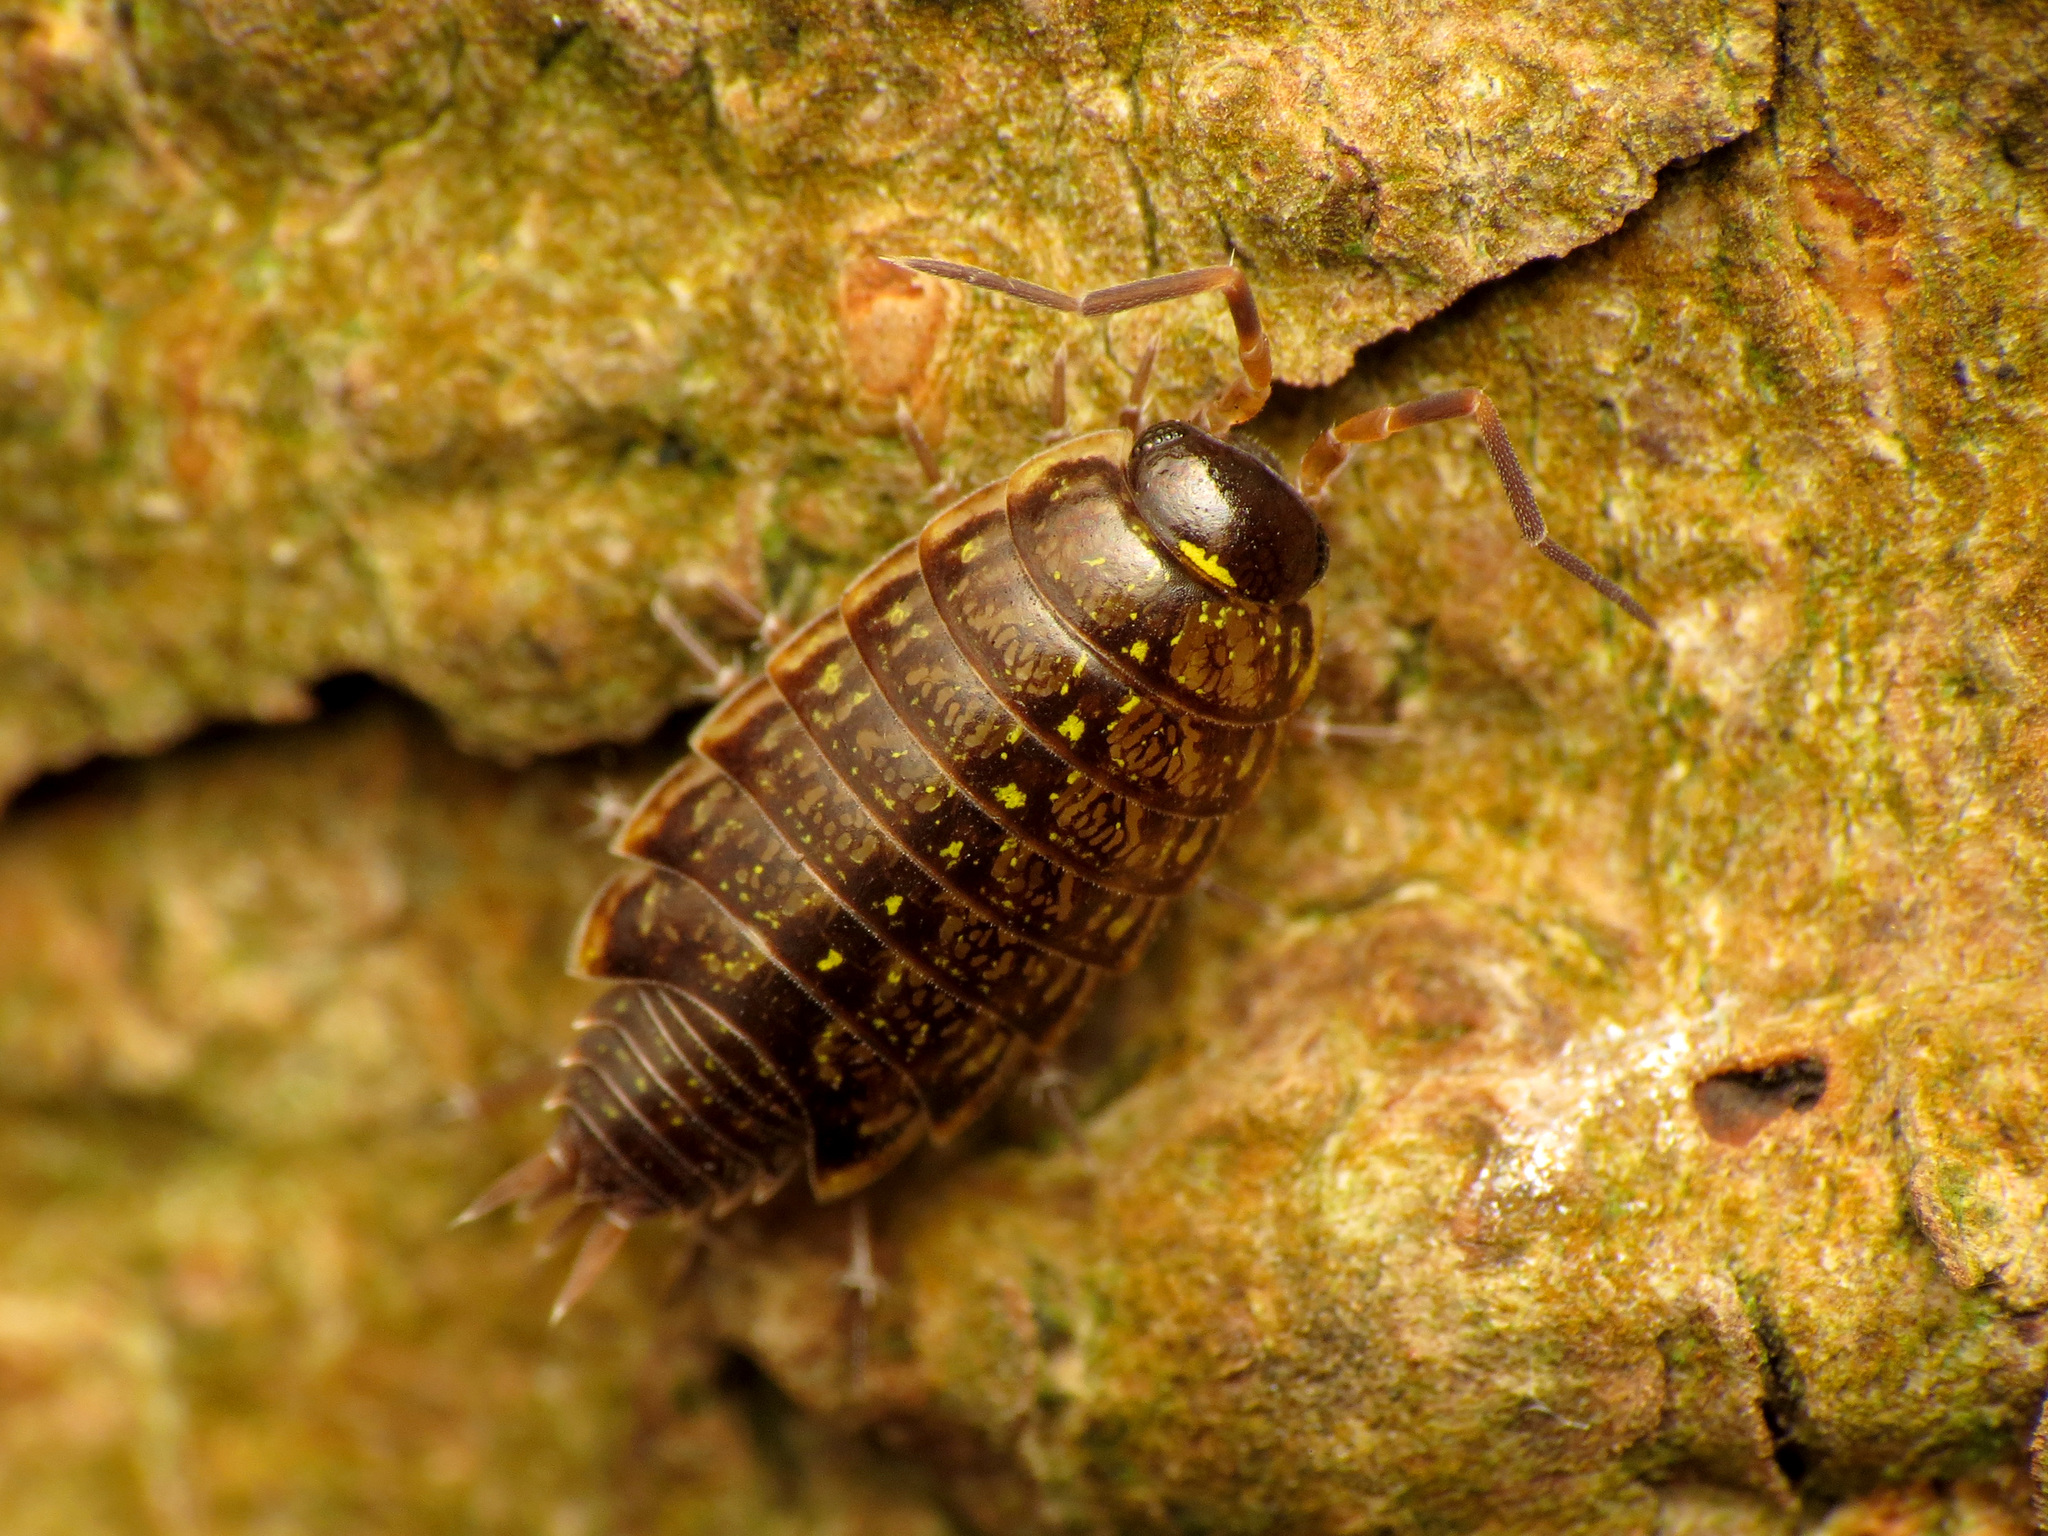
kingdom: Animalia
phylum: Arthropoda
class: Malacostraca
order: Isopoda
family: Philosciidae
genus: Philoscia
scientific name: Philoscia muscorum
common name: Common striped woodlouse
